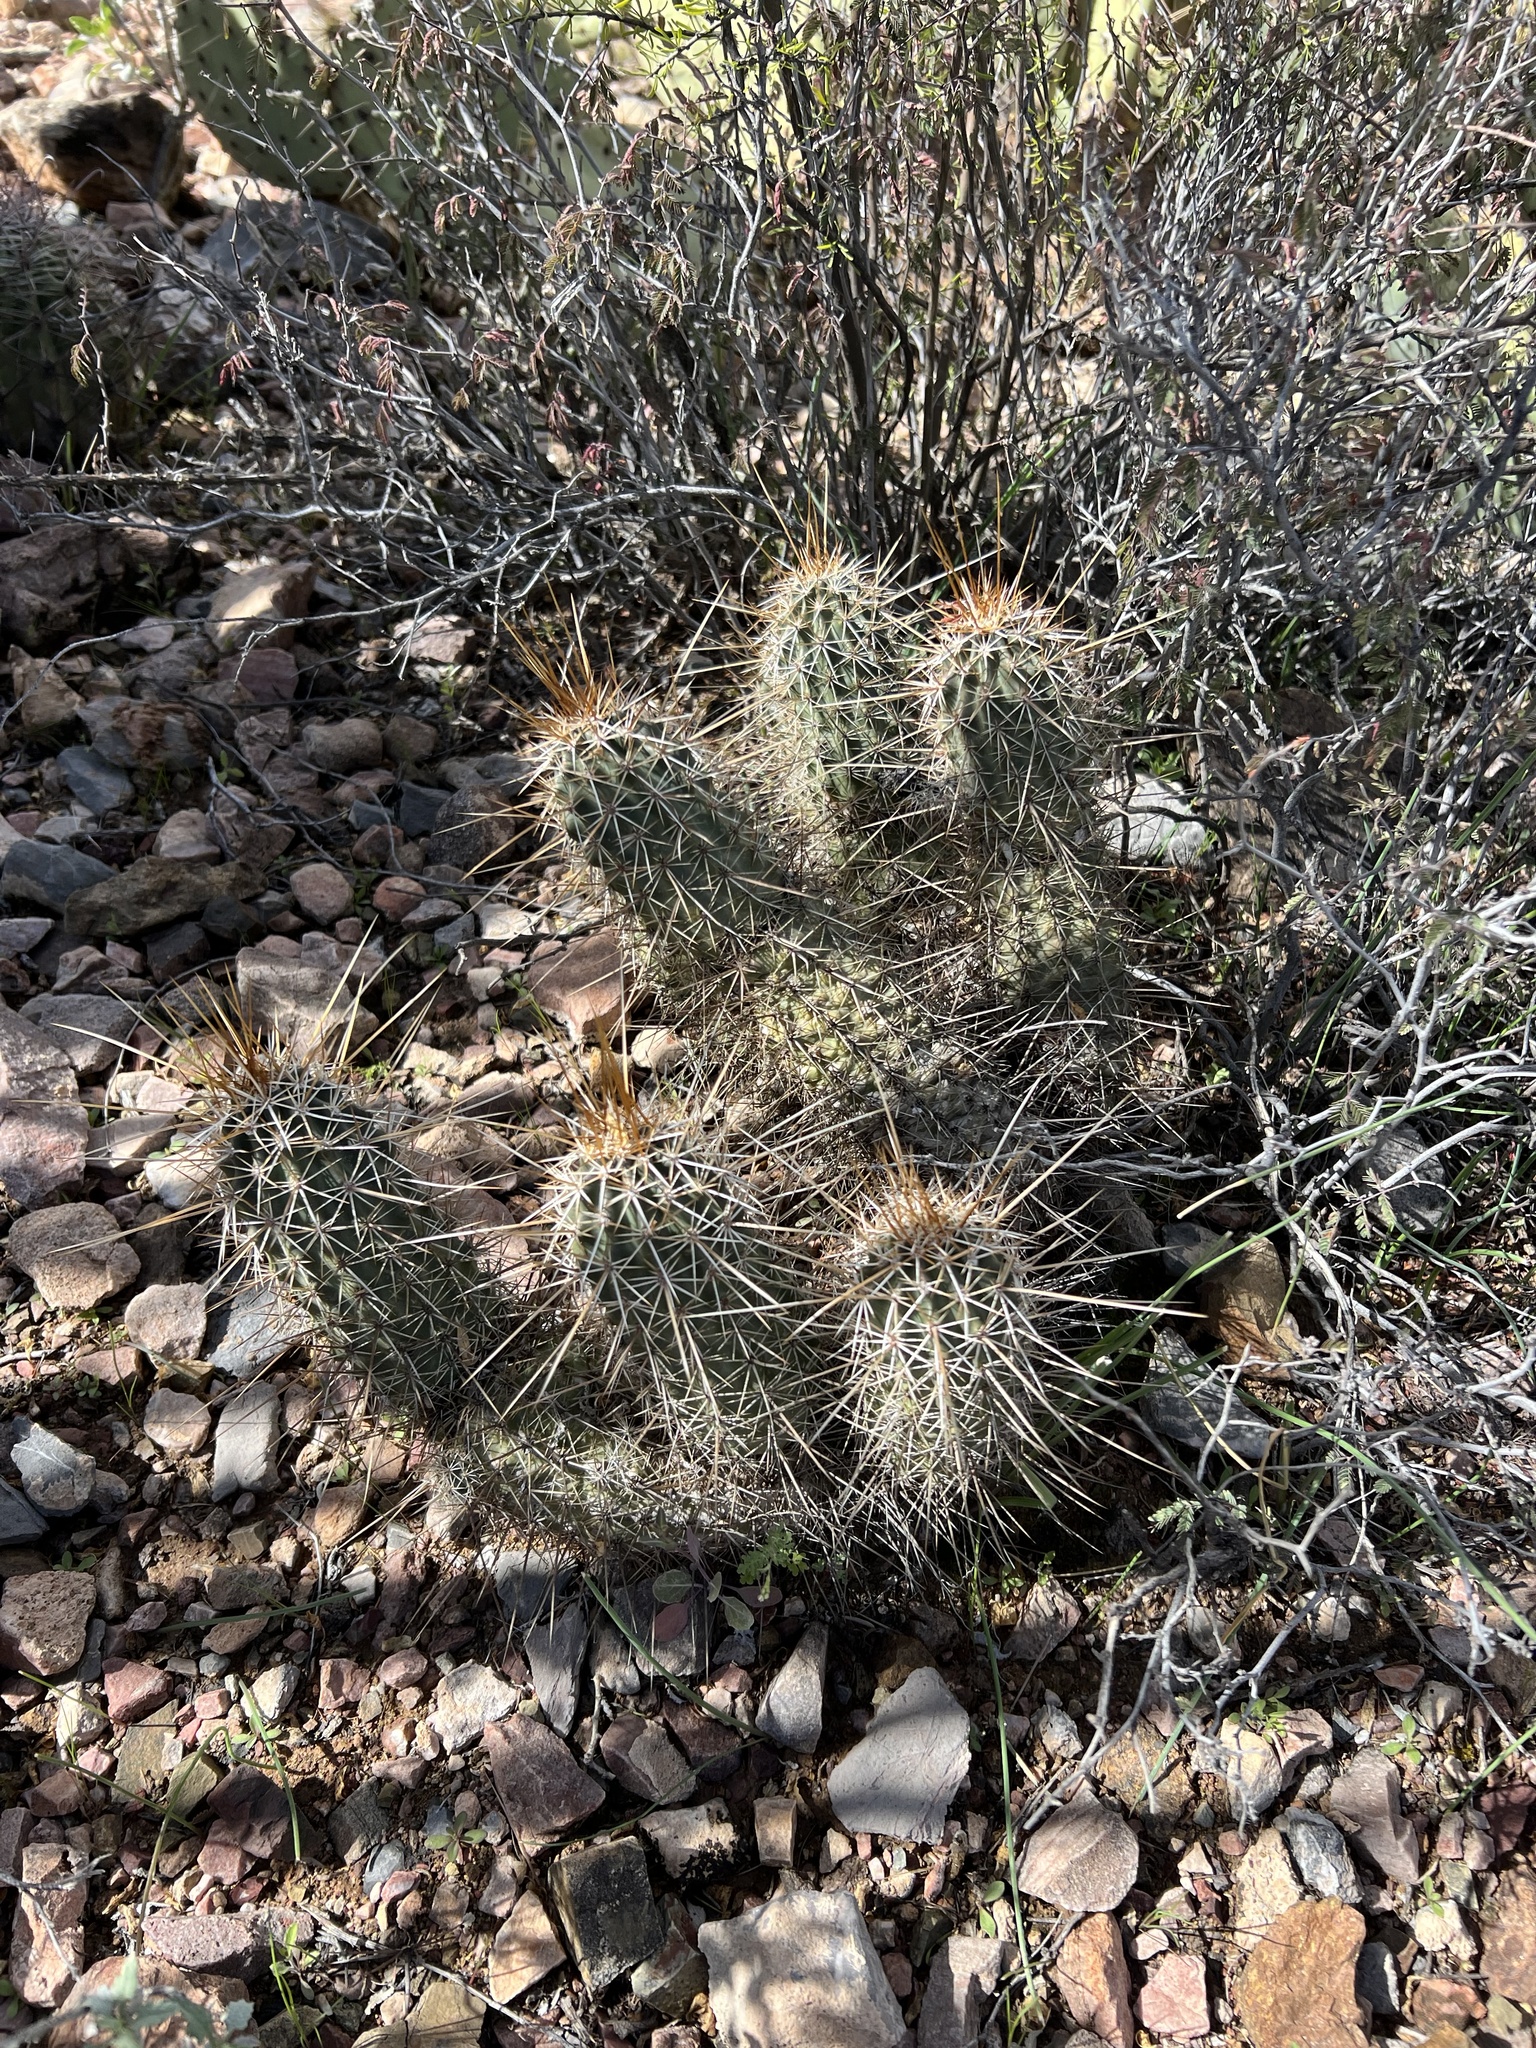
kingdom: Plantae
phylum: Tracheophyta
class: Magnoliopsida
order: Caryophyllales
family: Cactaceae
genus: Echinocereus
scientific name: Echinocereus fasciculatus
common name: Bundle hedgehog
